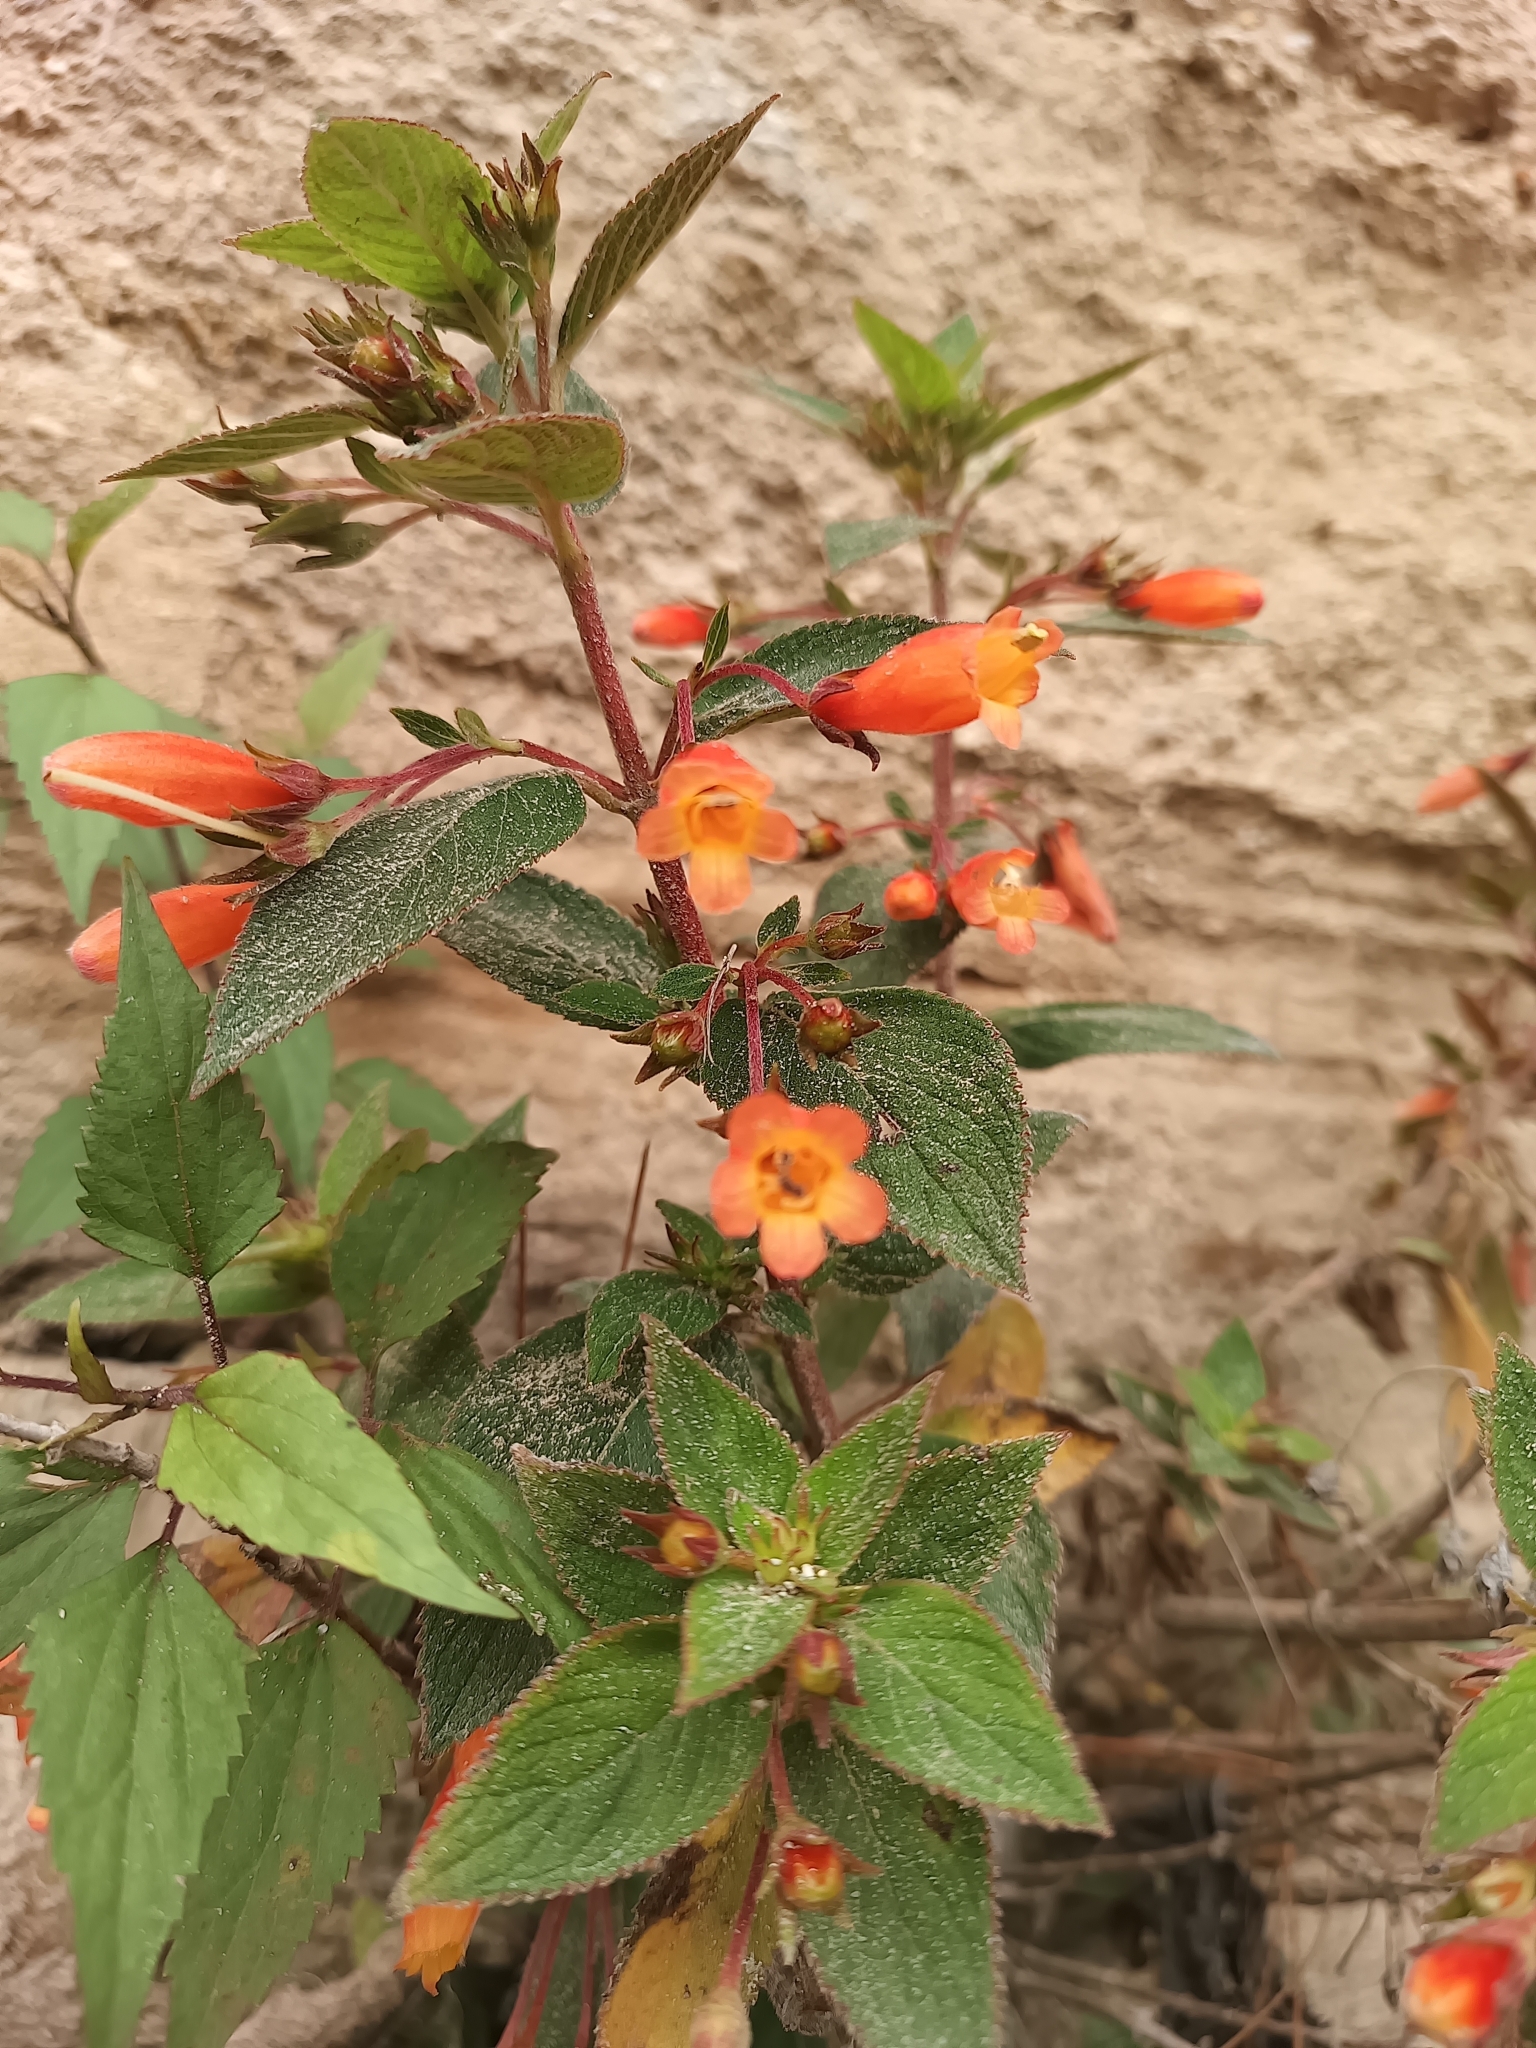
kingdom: Plantae
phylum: Tracheophyta
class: Magnoliopsida
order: Lamiales
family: Gesneriaceae
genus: Moussonia
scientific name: Moussonia jaliscana
